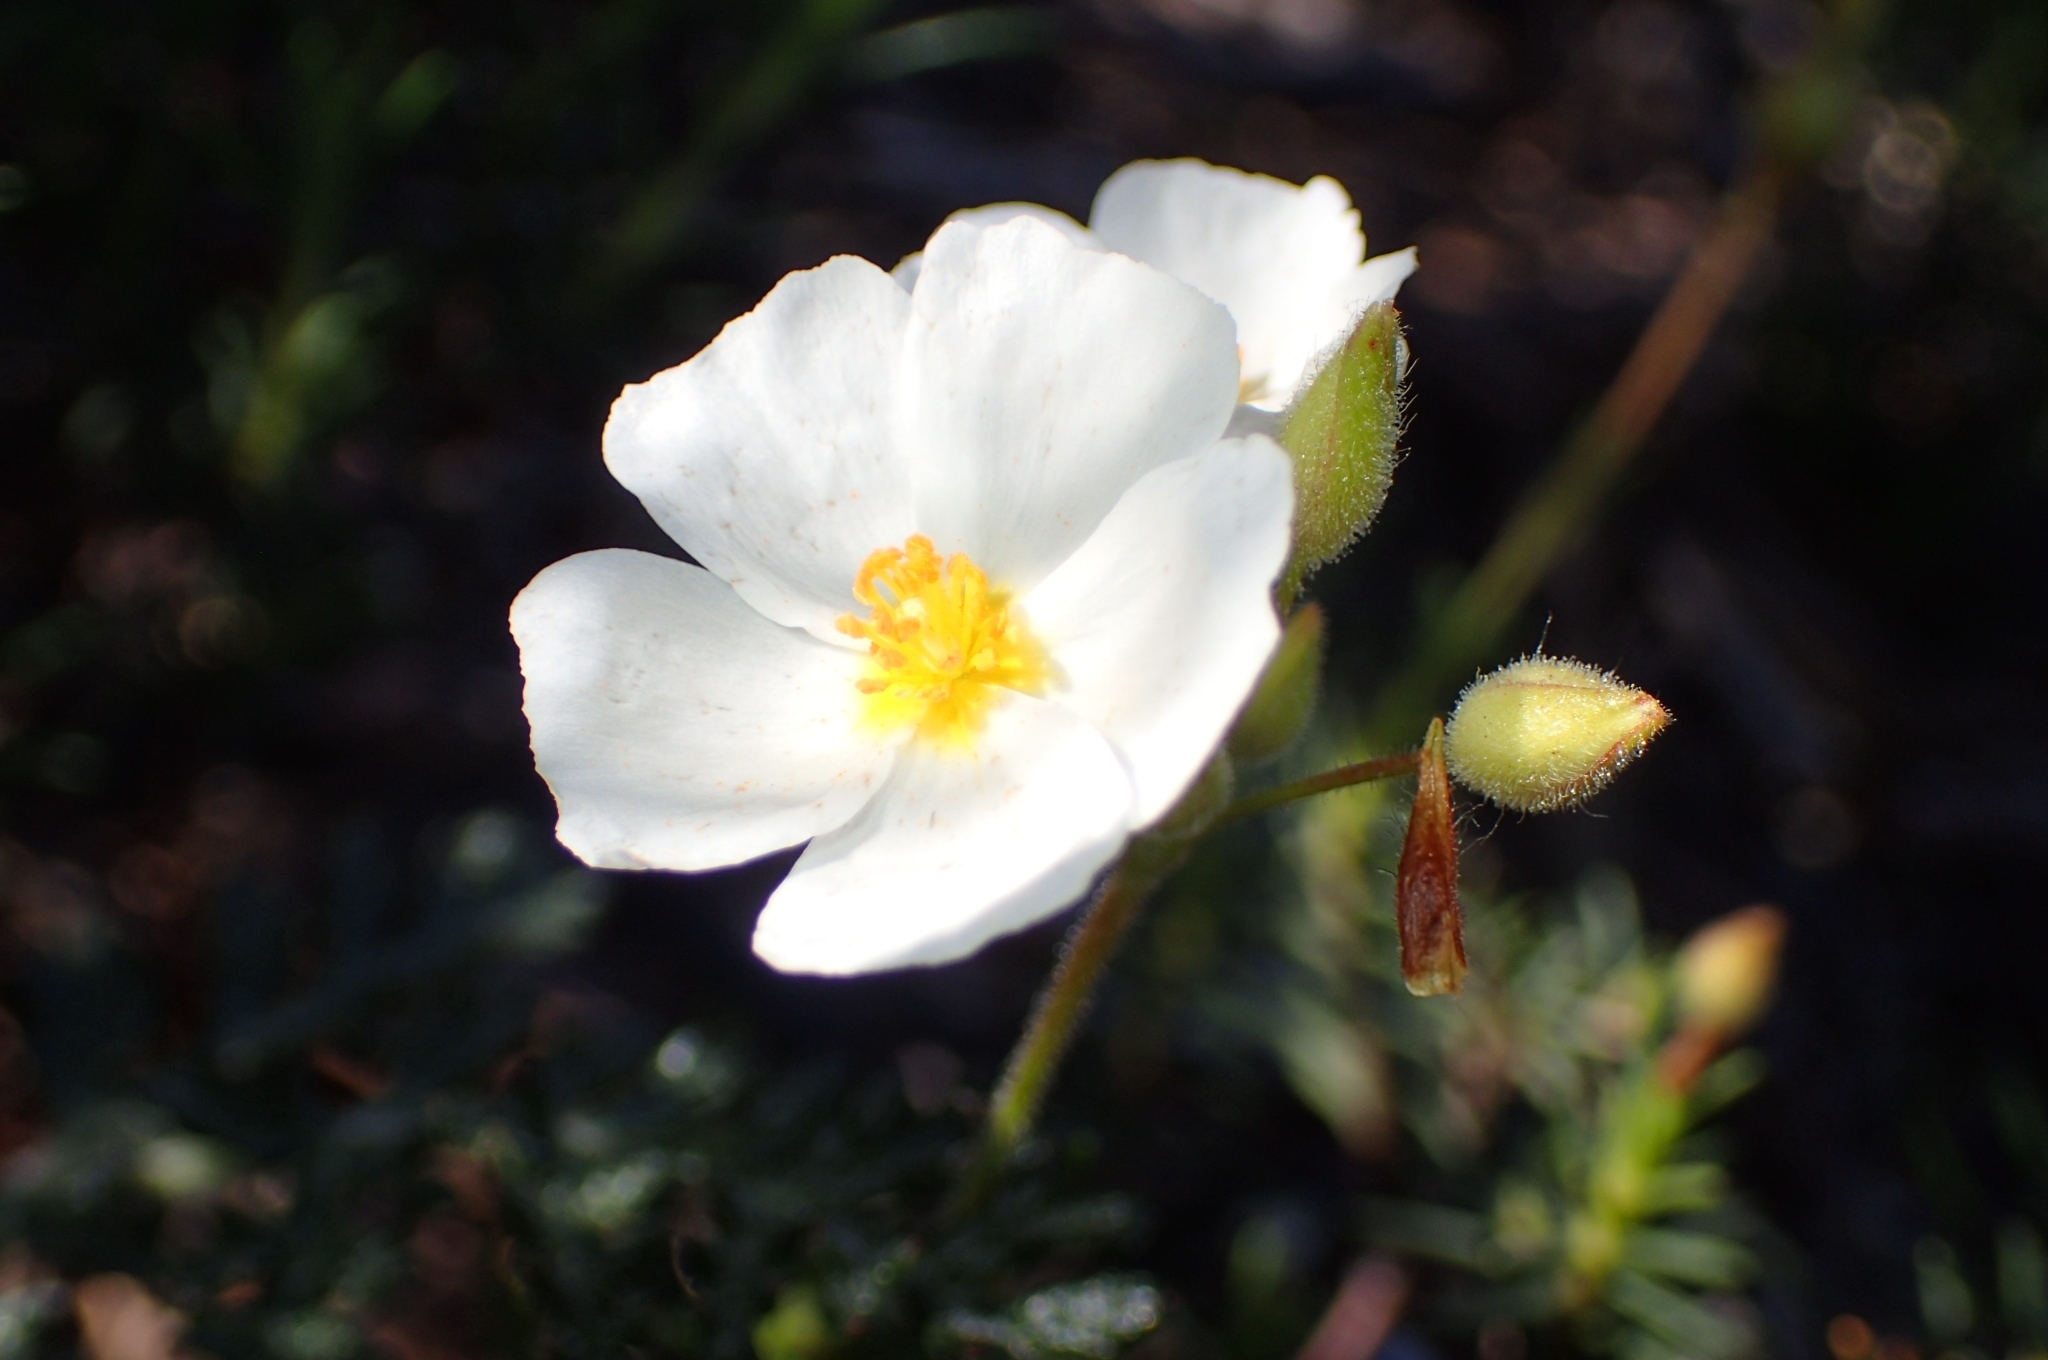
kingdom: Plantae
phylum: Tracheophyta
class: Magnoliopsida
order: Malvales
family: Cistaceae
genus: Halimium
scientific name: Halimium umbellatum
